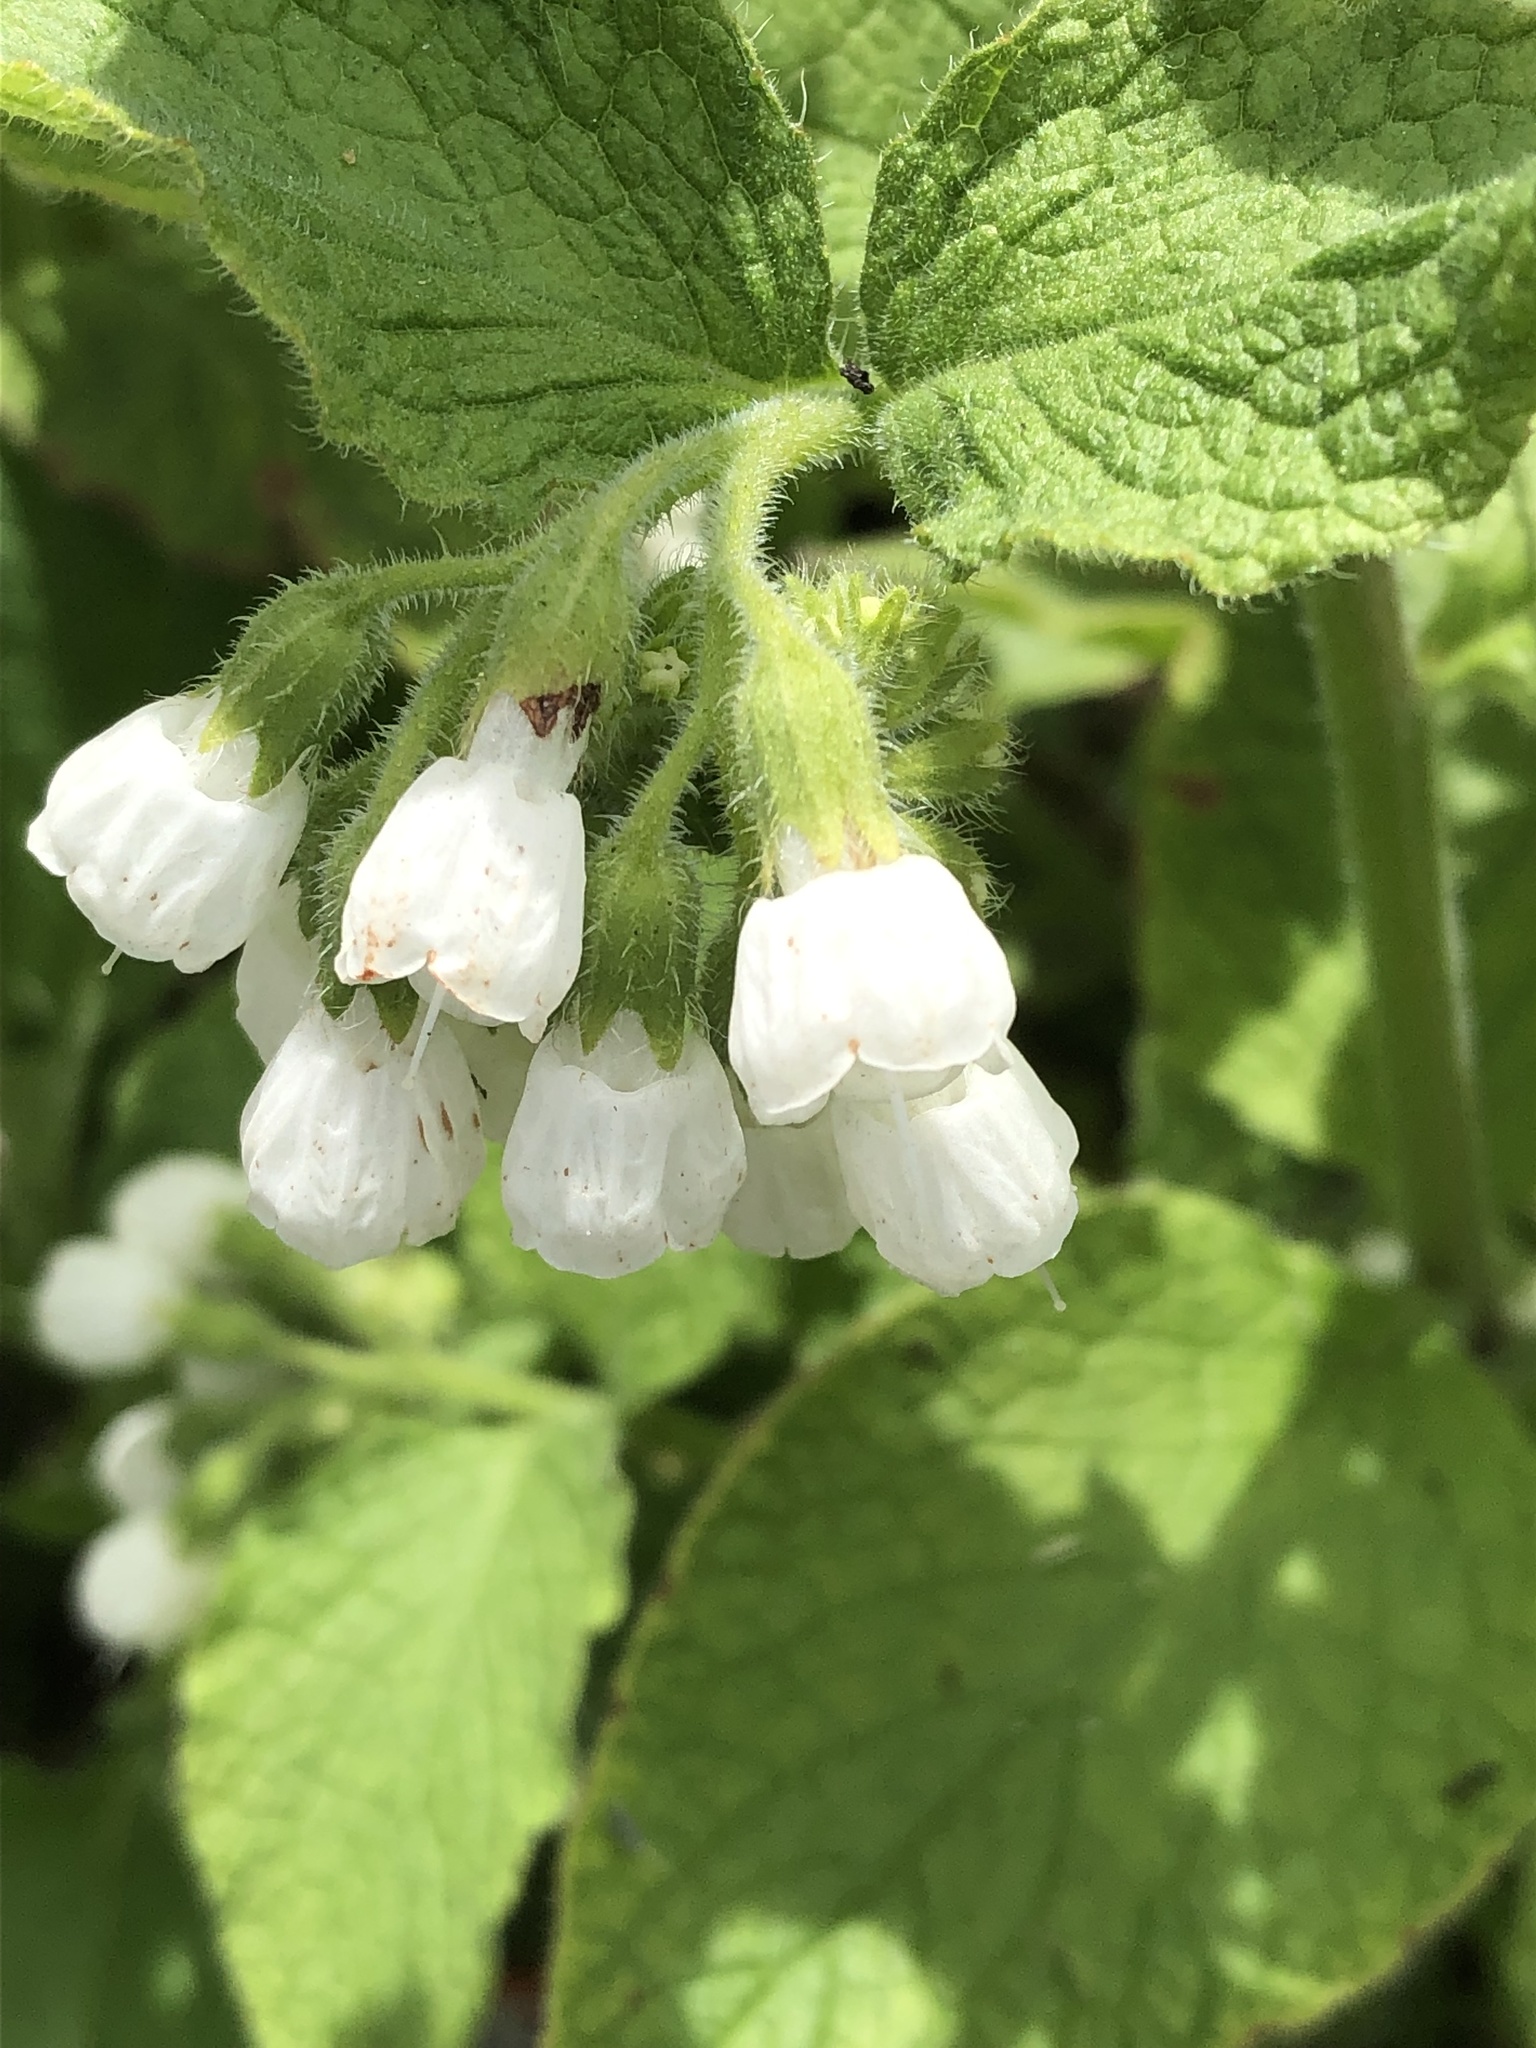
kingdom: Plantae
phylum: Tracheophyta
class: Magnoliopsida
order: Boraginales
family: Boraginaceae
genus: Symphytum
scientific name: Symphytum orientale
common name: White comfrey
